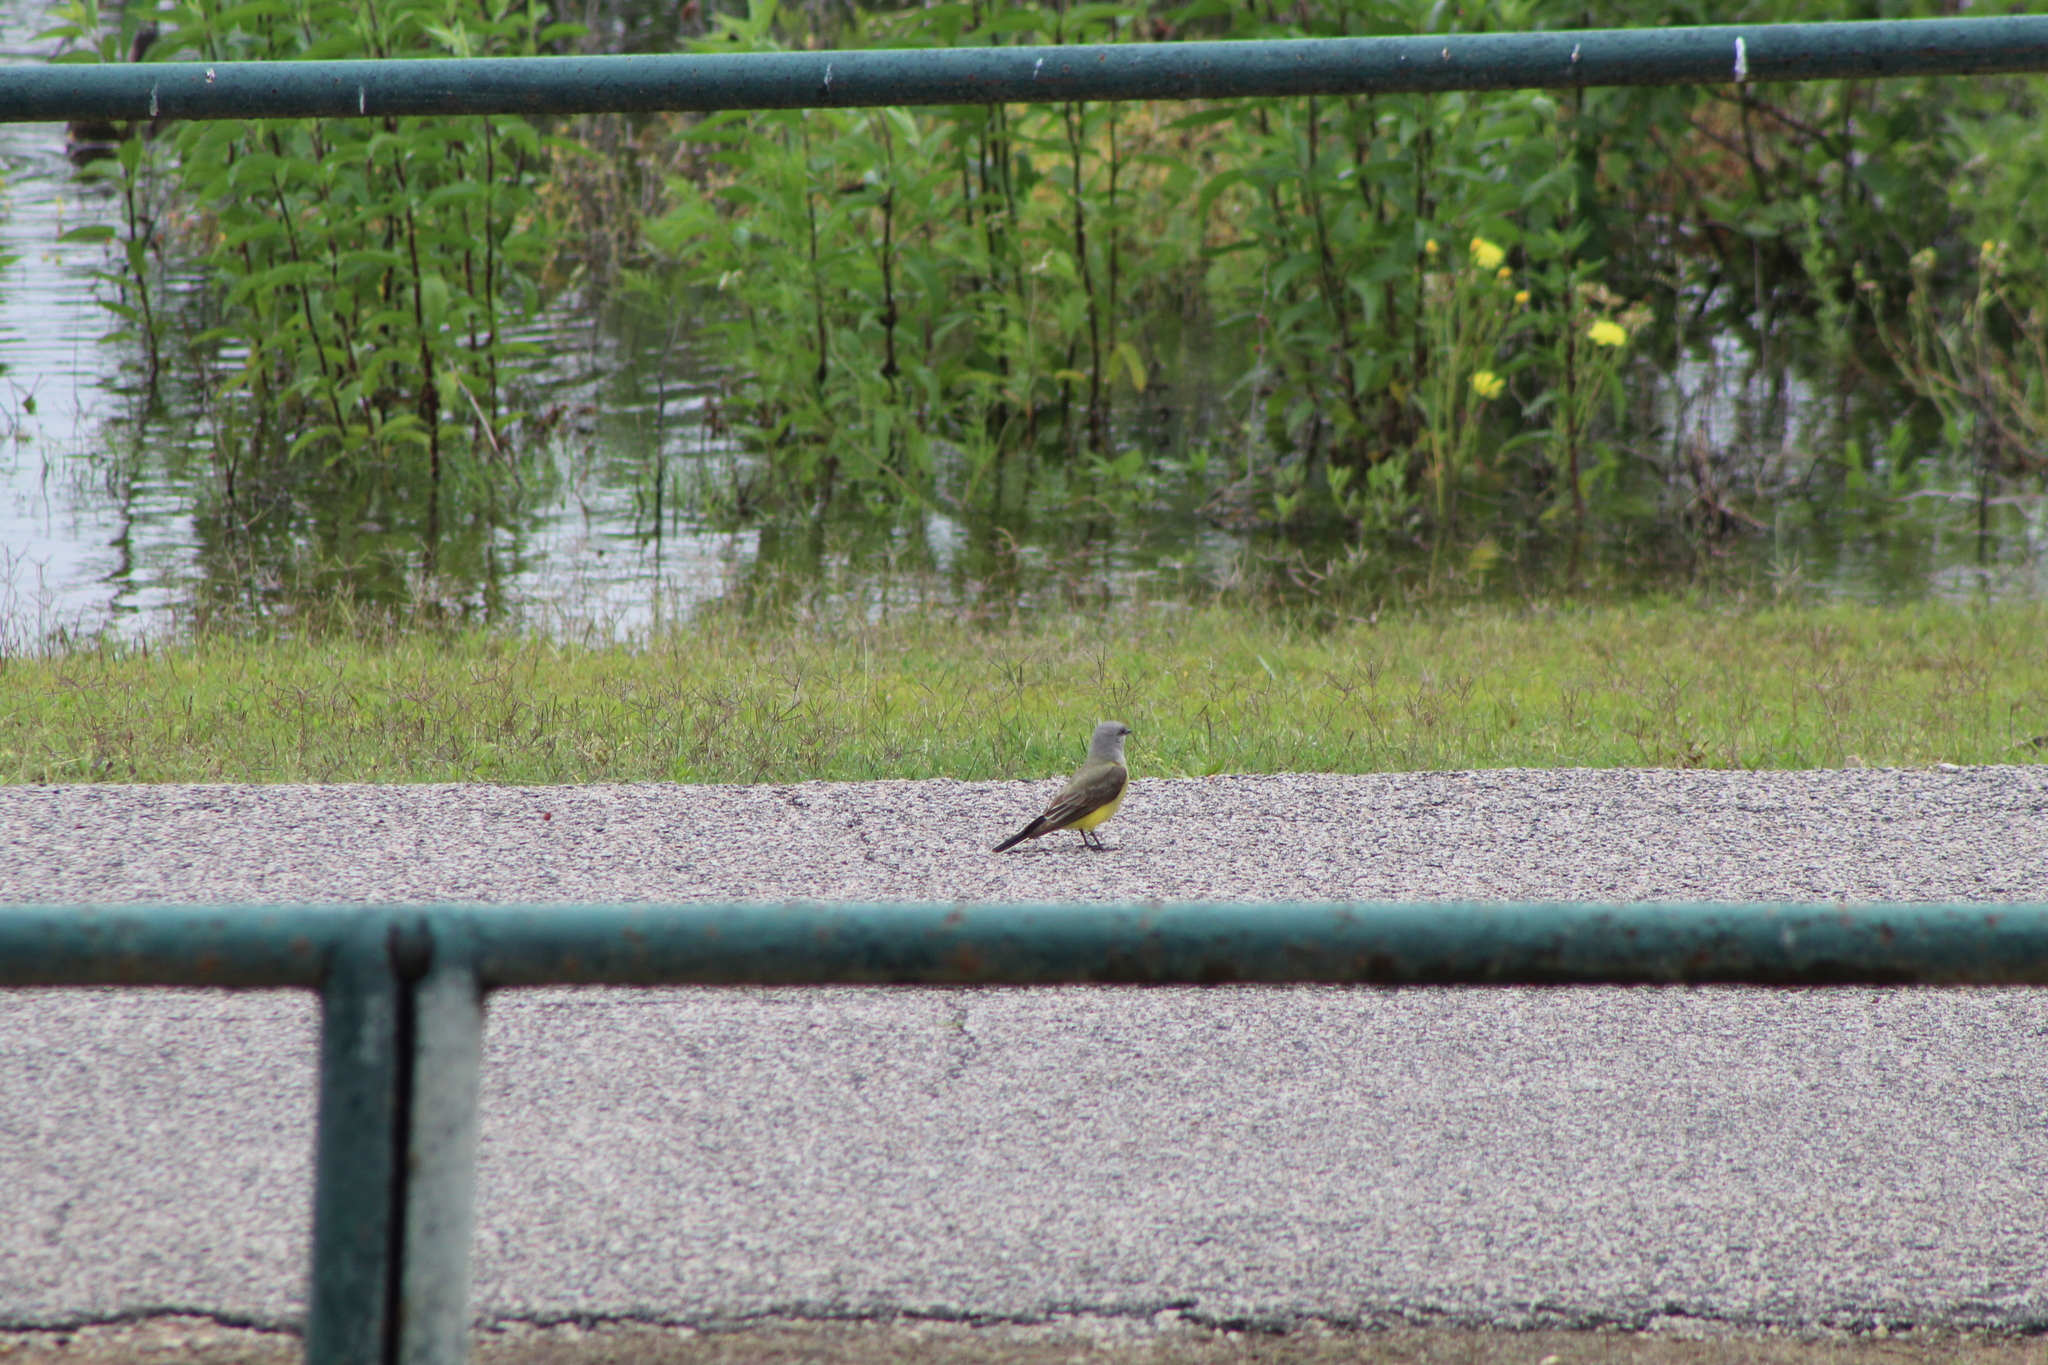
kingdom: Animalia
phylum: Chordata
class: Aves
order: Passeriformes
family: Tyrannidae
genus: Tyrannus
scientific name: Tyrannus verticalis
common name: Western kingbird
